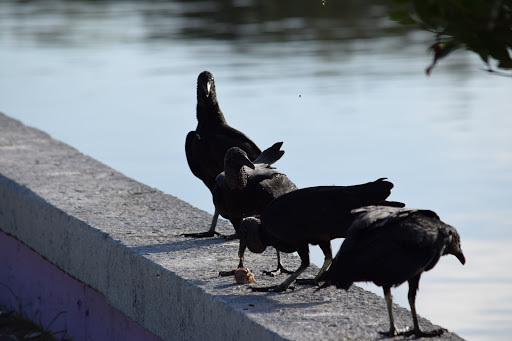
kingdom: Animalia
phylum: Chordata
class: Aves
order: Accipitriformes
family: Cathartidae
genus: Coragyps
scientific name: Coragyps atratus
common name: Black vulture
